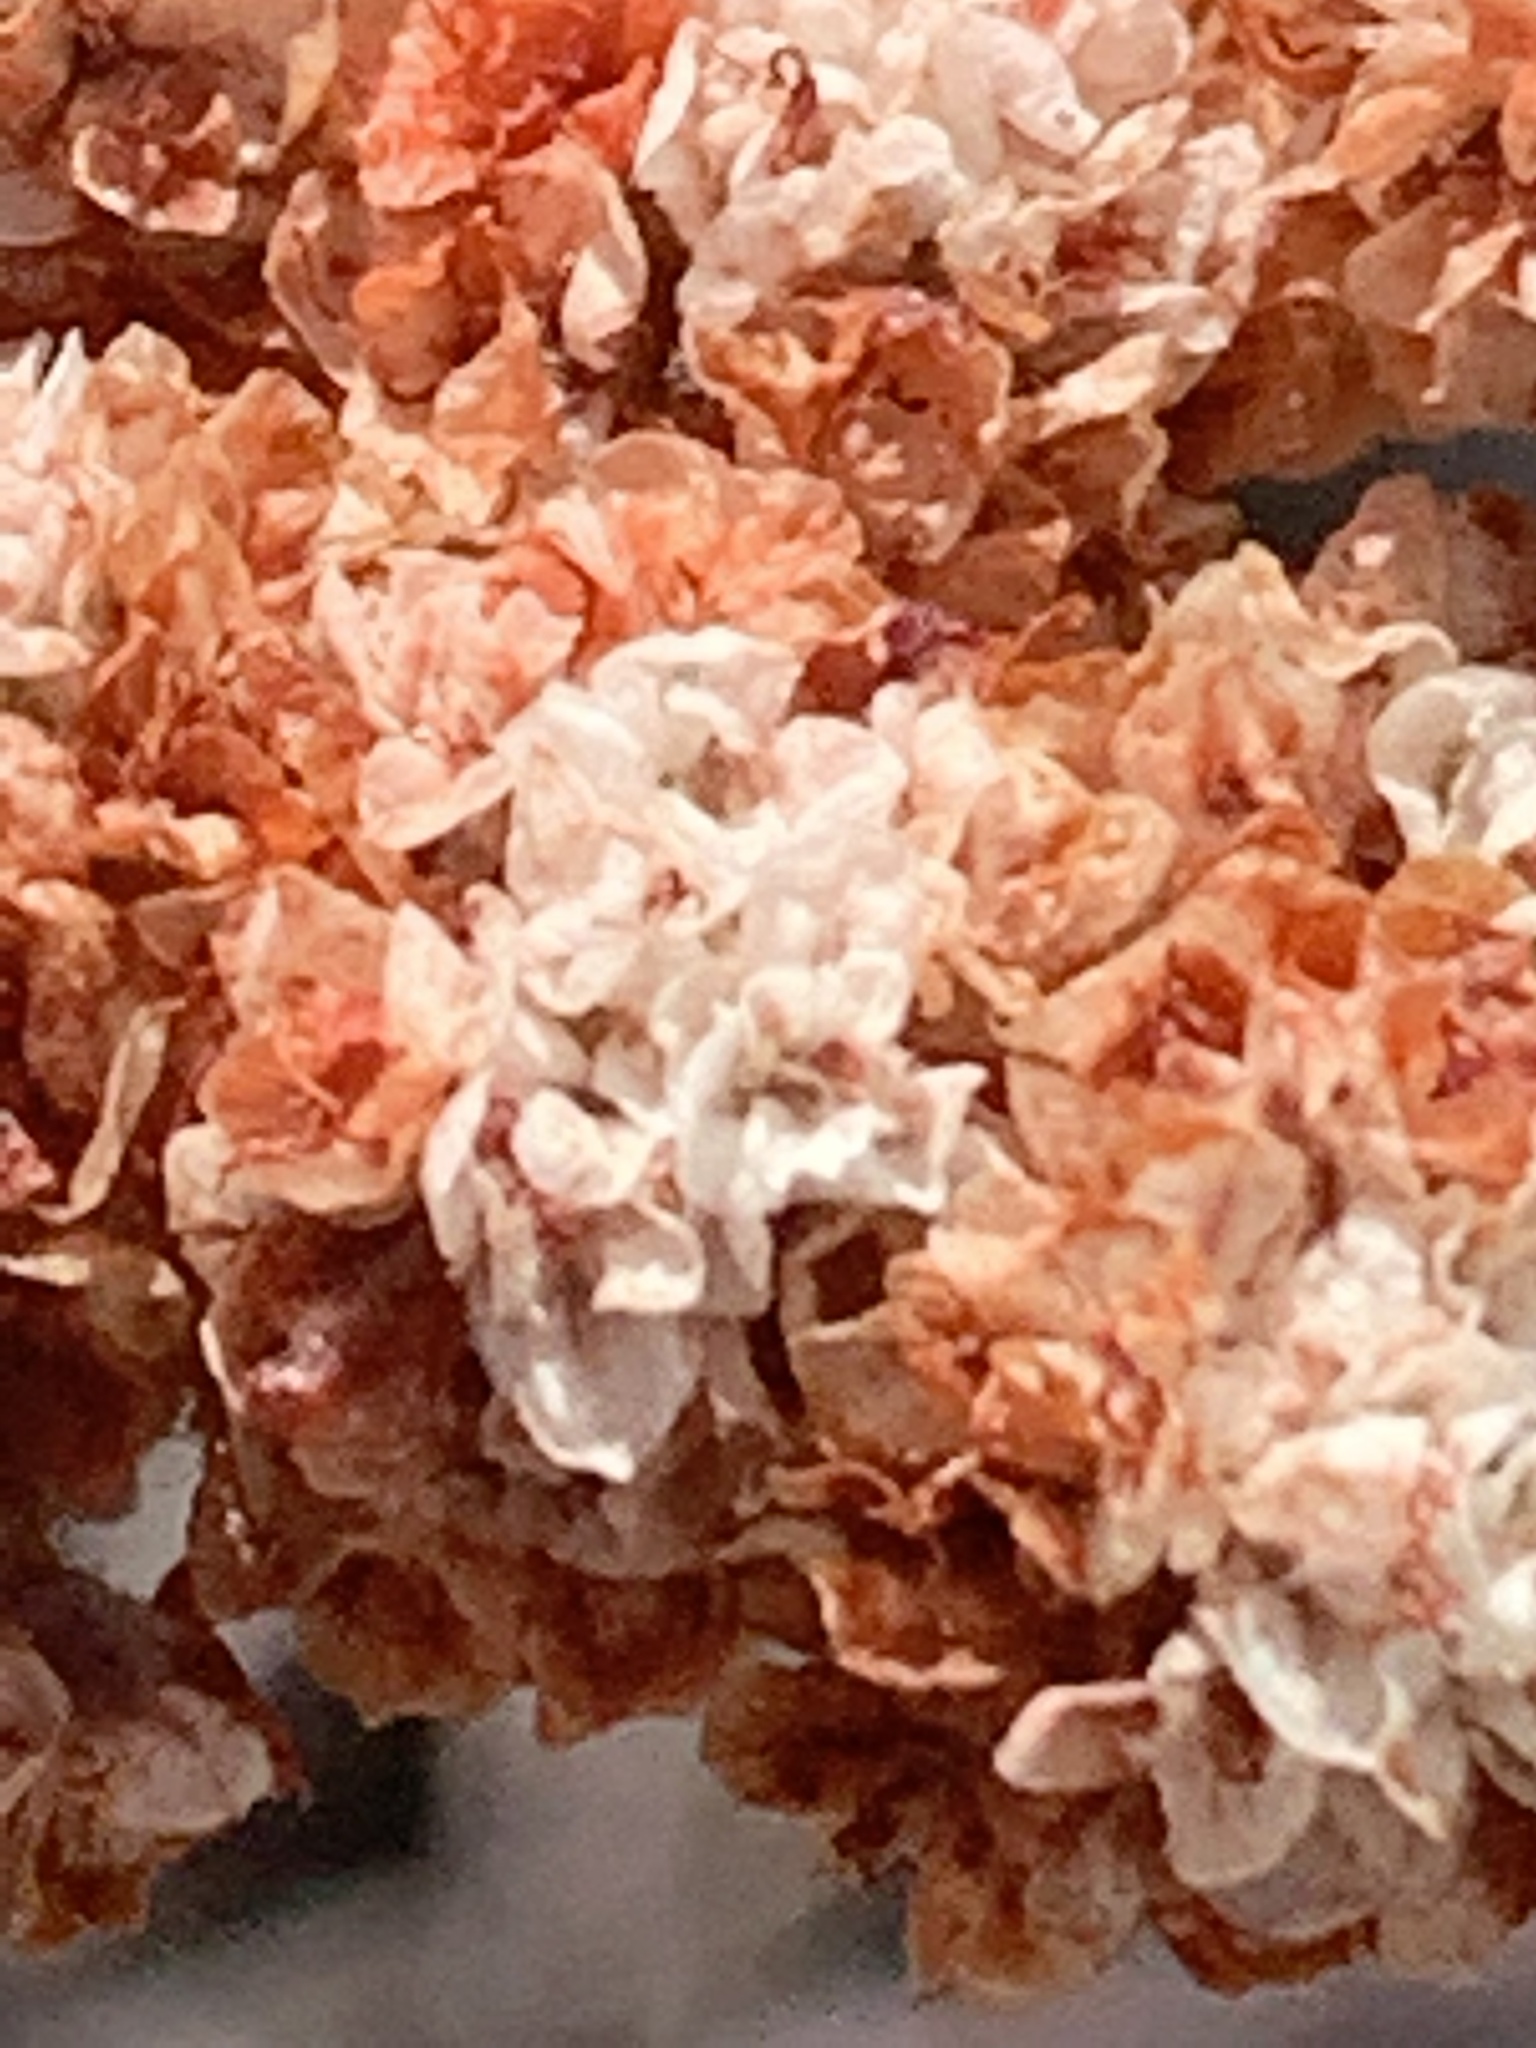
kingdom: Plantae
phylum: Tracheophyta
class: Magnoliopsida
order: Caryophyllales
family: Polygonaceae
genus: Eriogonum
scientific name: Eriogonum fasciculatum
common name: California wild buckwheat
